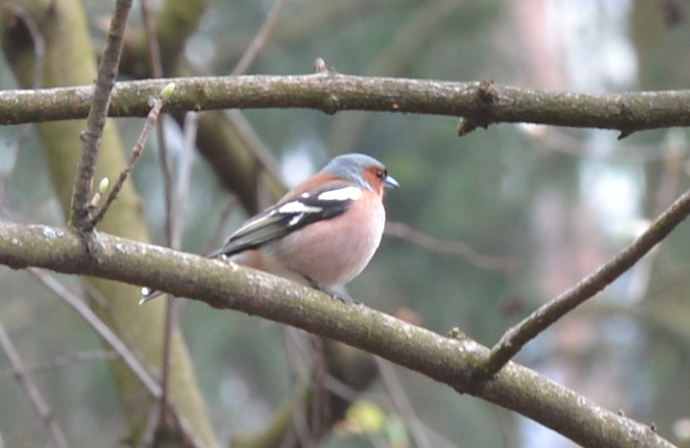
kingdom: Animalia
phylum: Chordata
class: Aves
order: Passeriformes
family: Fringillidae
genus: Fringilla
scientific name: Fringilla coelebs
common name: Common chaffinch
